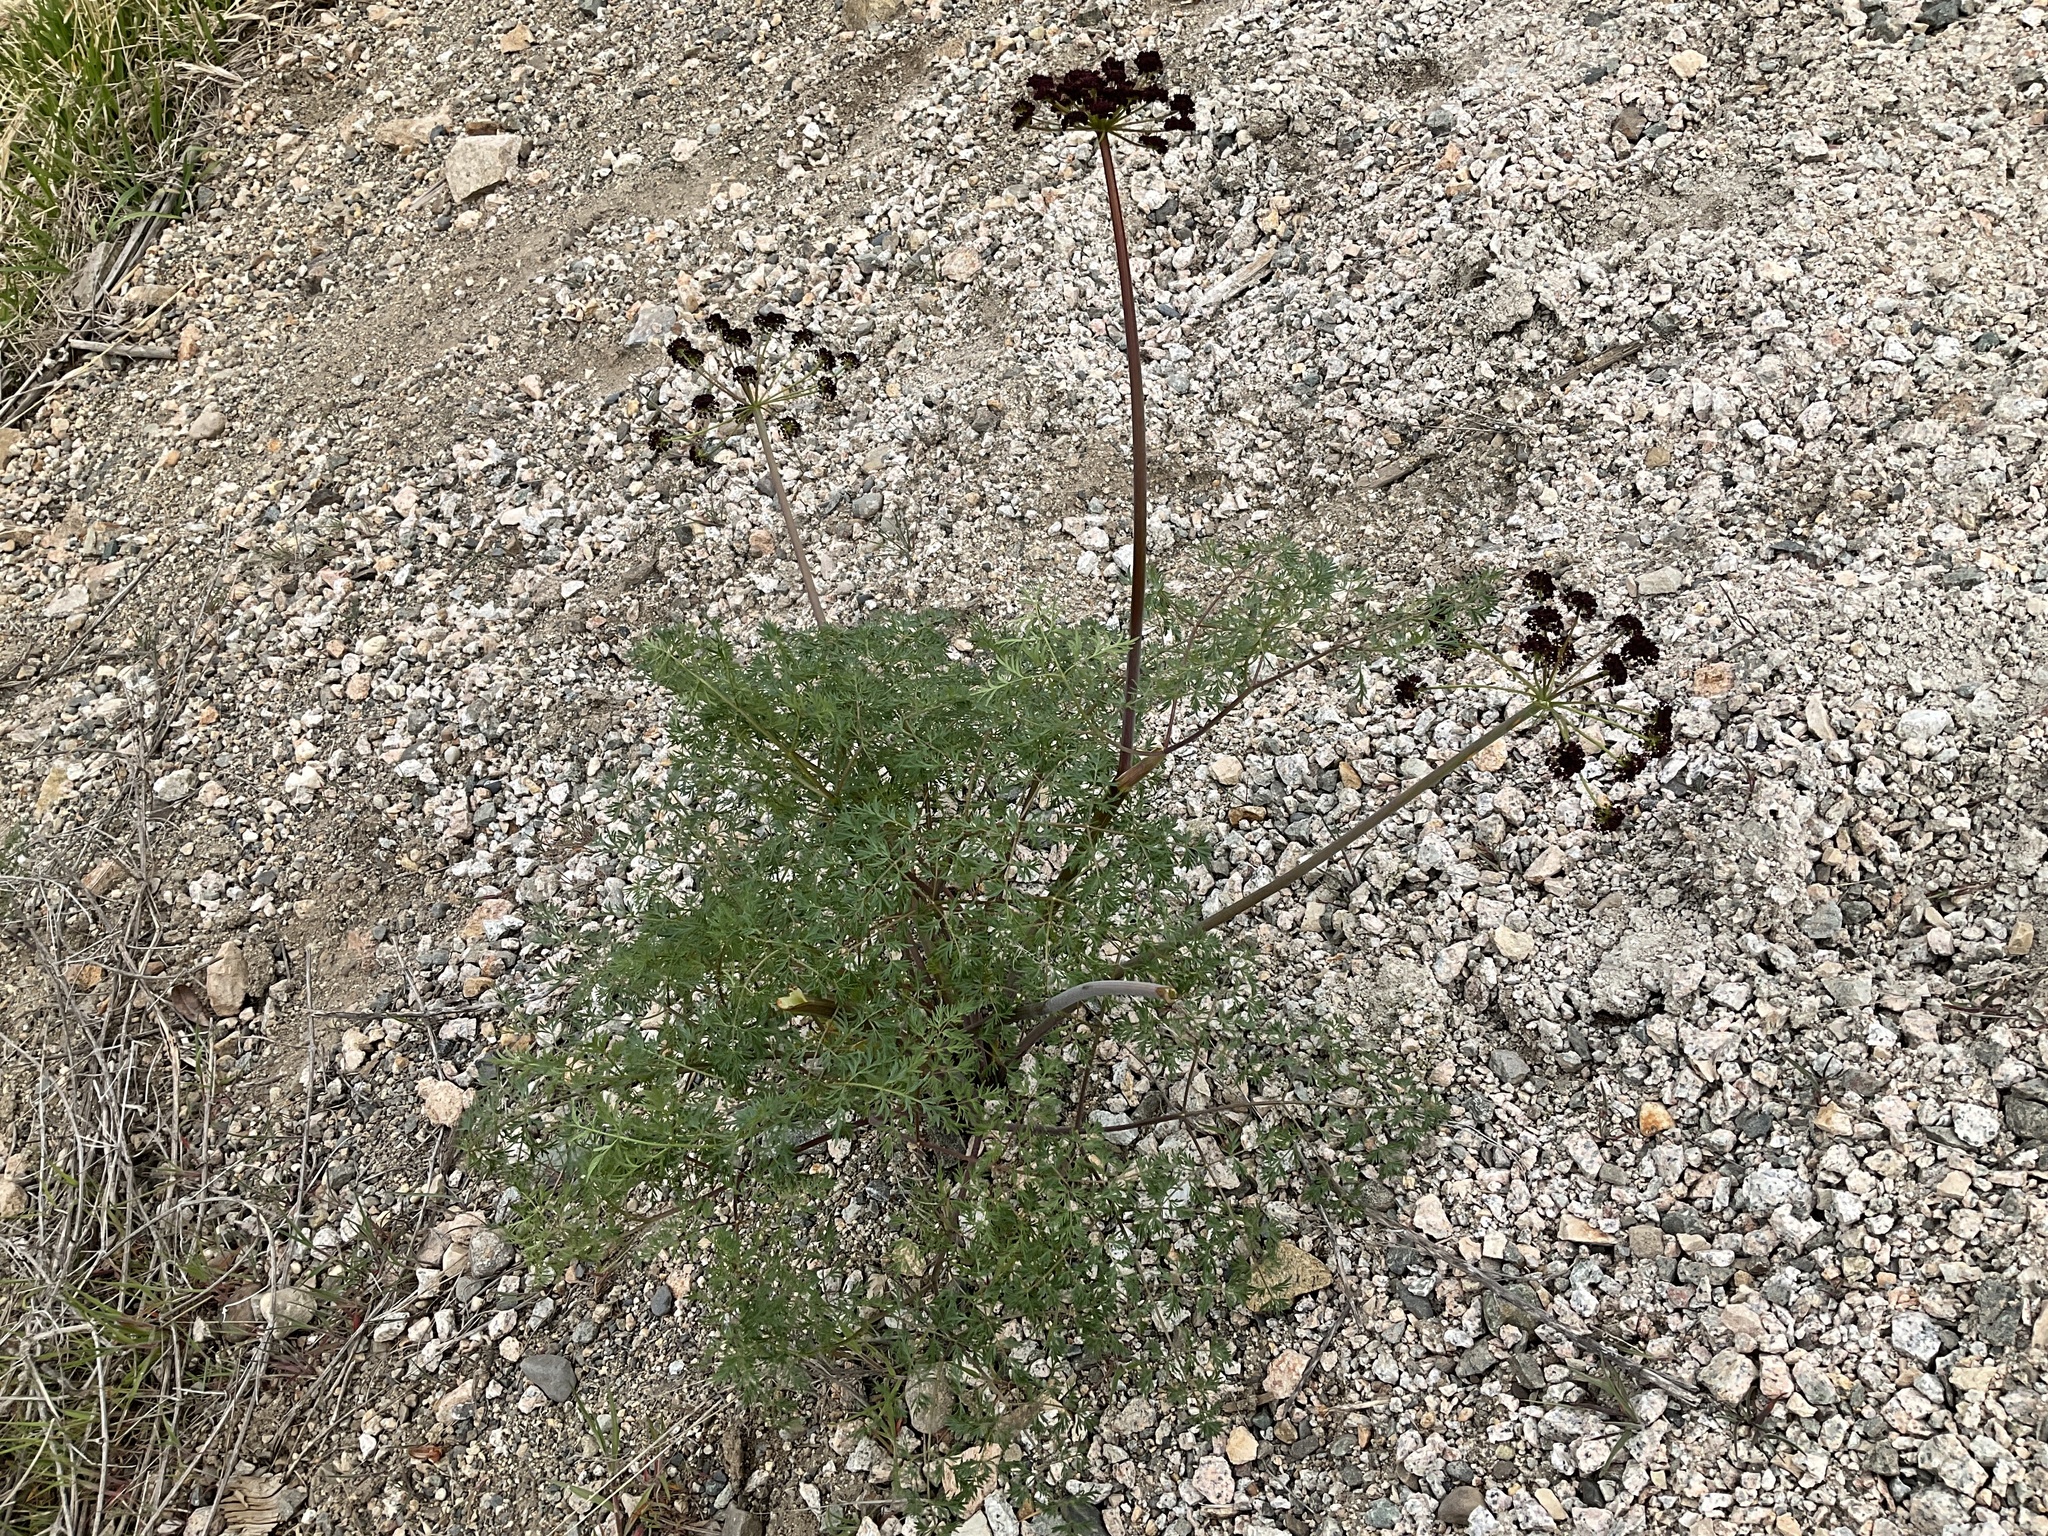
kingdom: Plantae
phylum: Tracheophyta
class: Magnoliopsida
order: Apiales
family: Apiaceae
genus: Lomatium
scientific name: Lomatium multifidum
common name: Carrot-leaved biscuitroot
